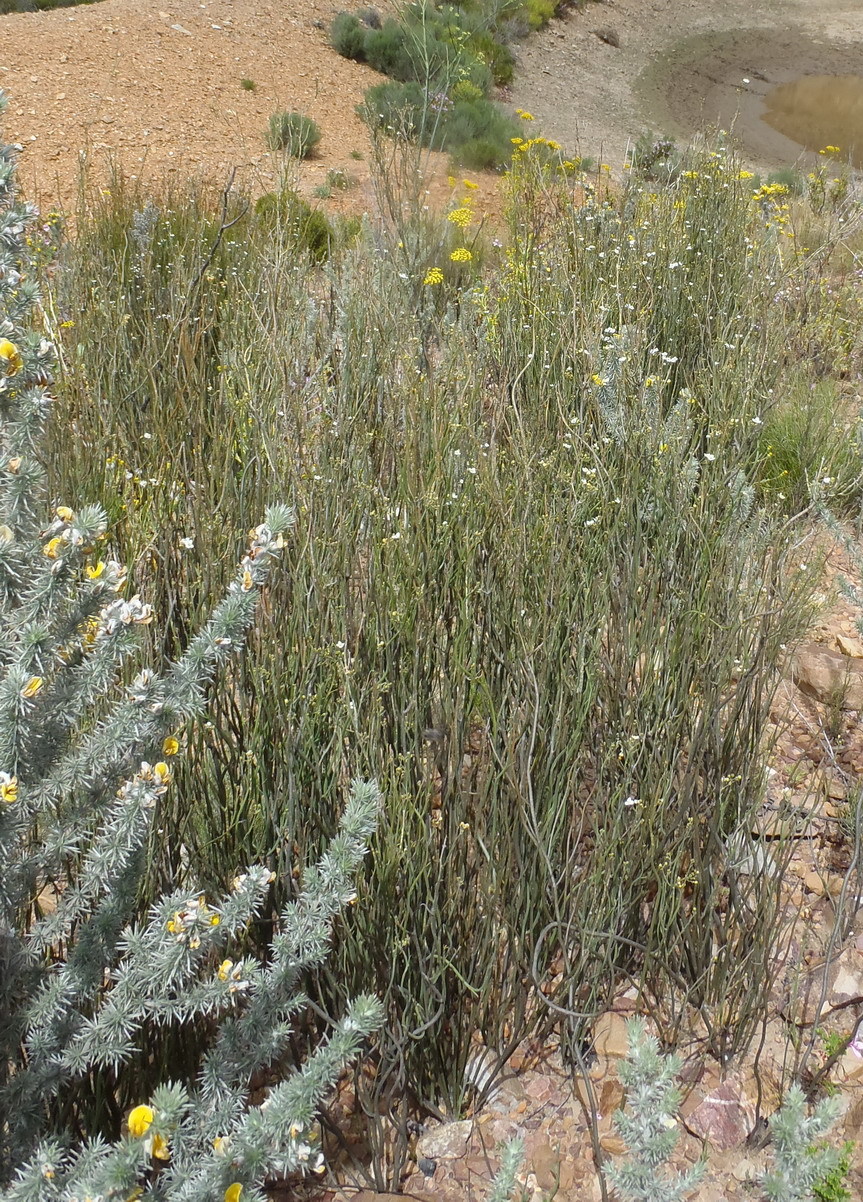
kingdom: Plantae
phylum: Tracheophyta
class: Magnoliopsida
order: Solanales
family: Montiniaceae
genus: Montinia
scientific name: Montinia caryophyllacea
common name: Wild clove-bush
